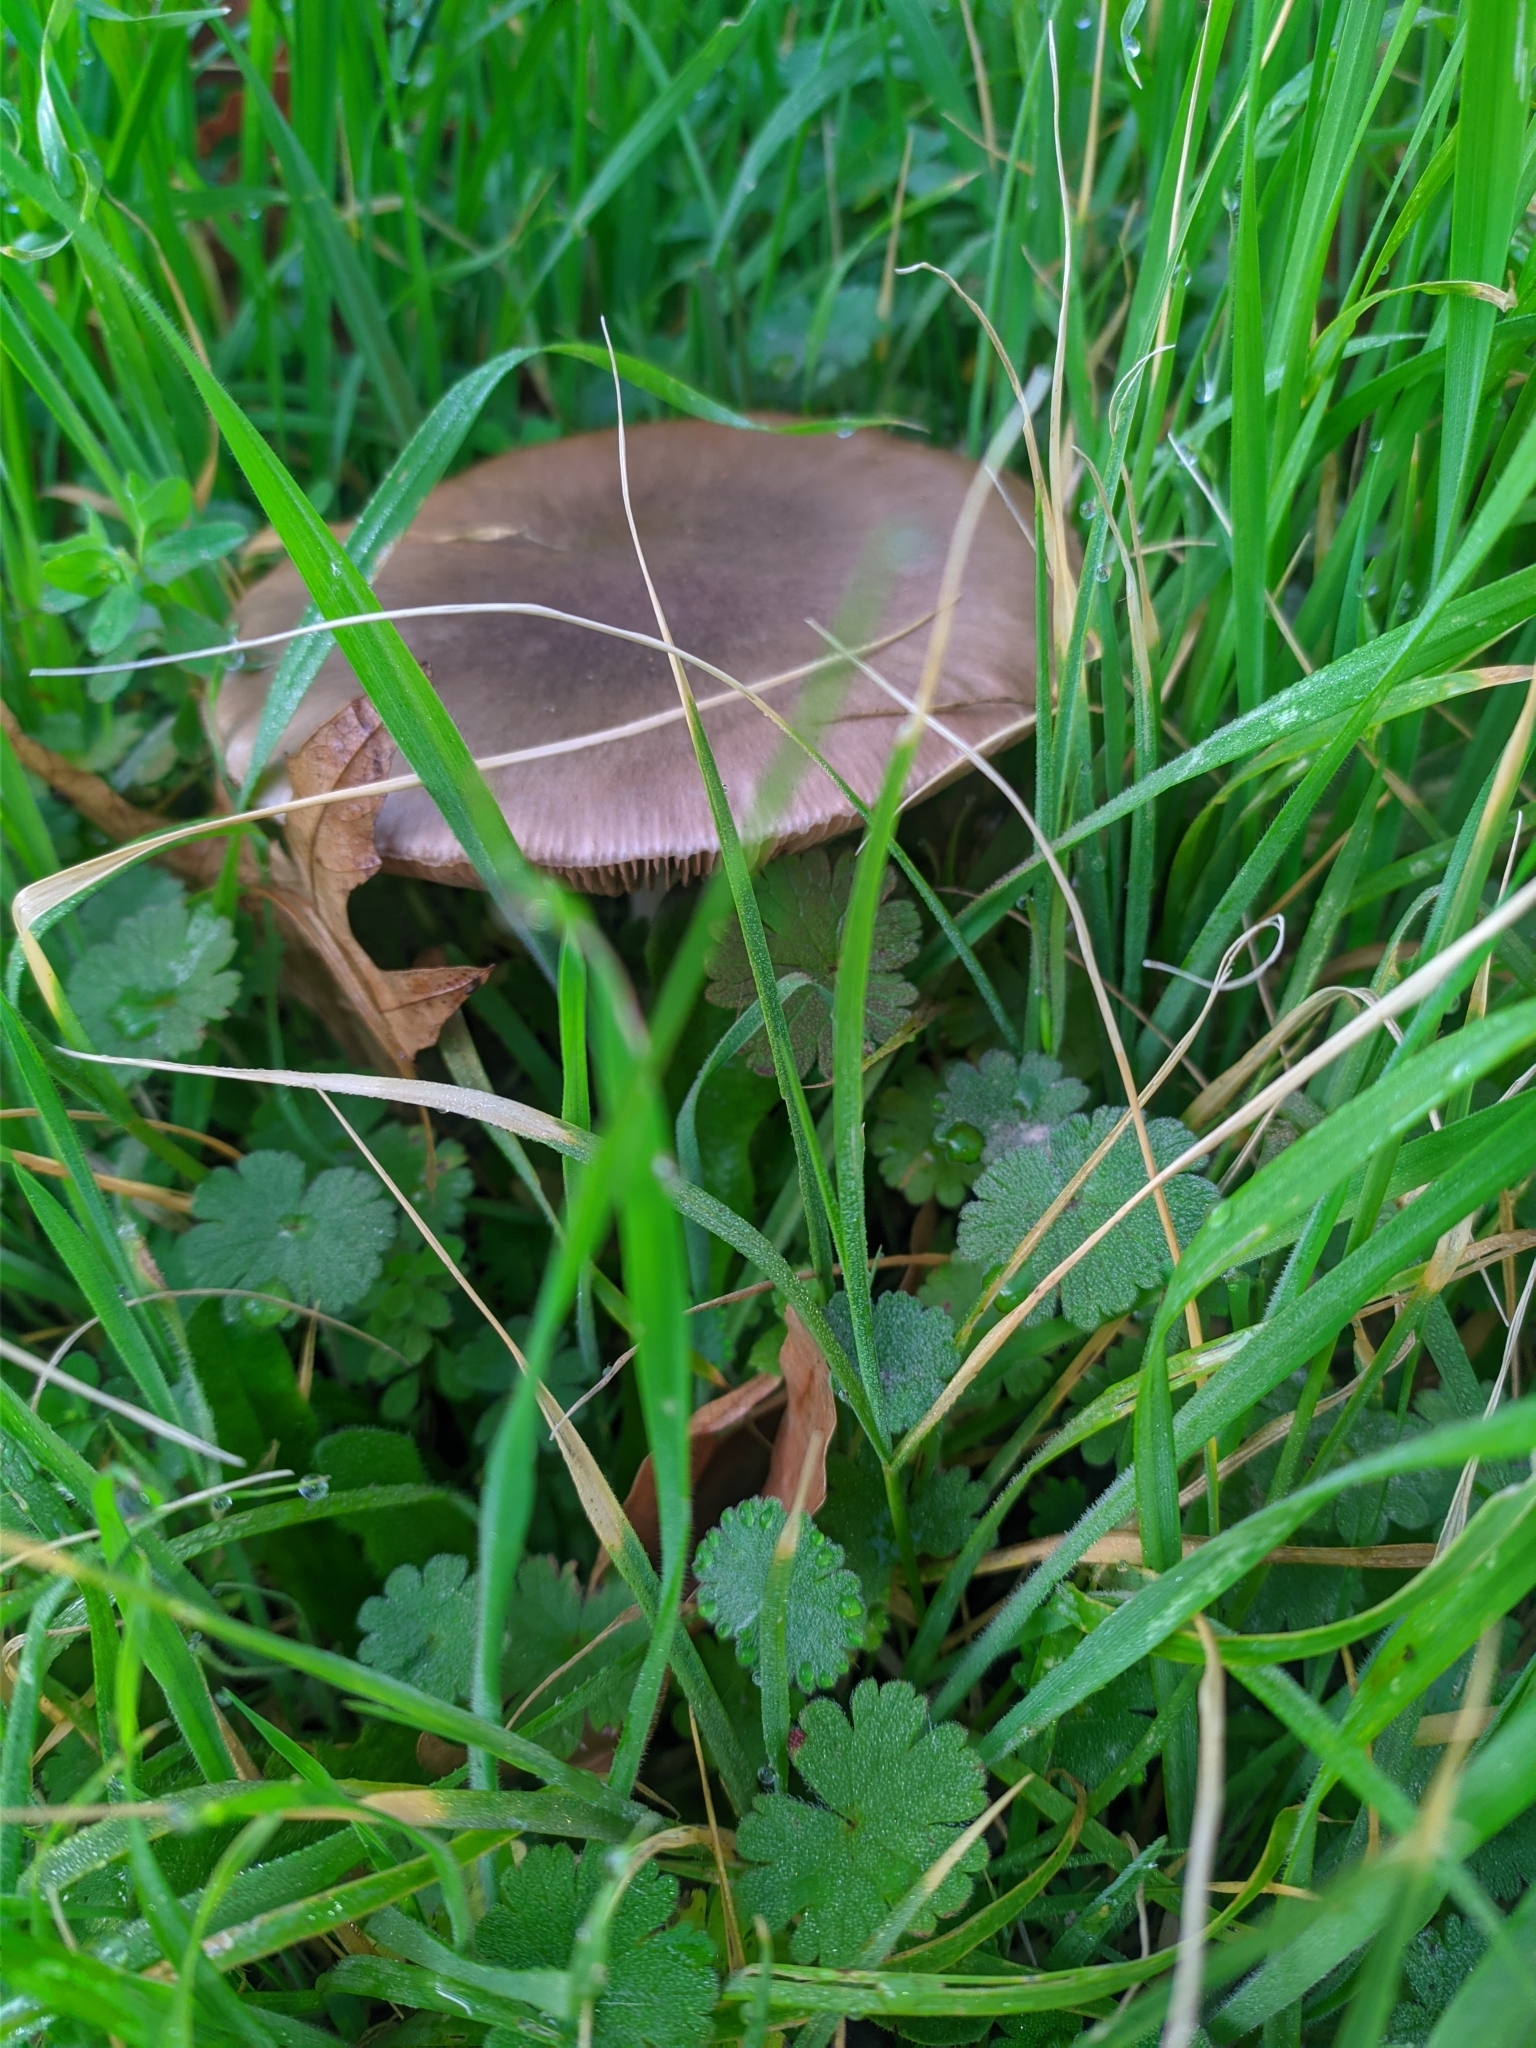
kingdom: Fungi
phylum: Basidiomycota
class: Agaricomycetes
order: Agaricales
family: Pluteaceae
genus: Volvopluteus
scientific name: Volvopluteus gloiocephalus
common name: Stubble rosegill
